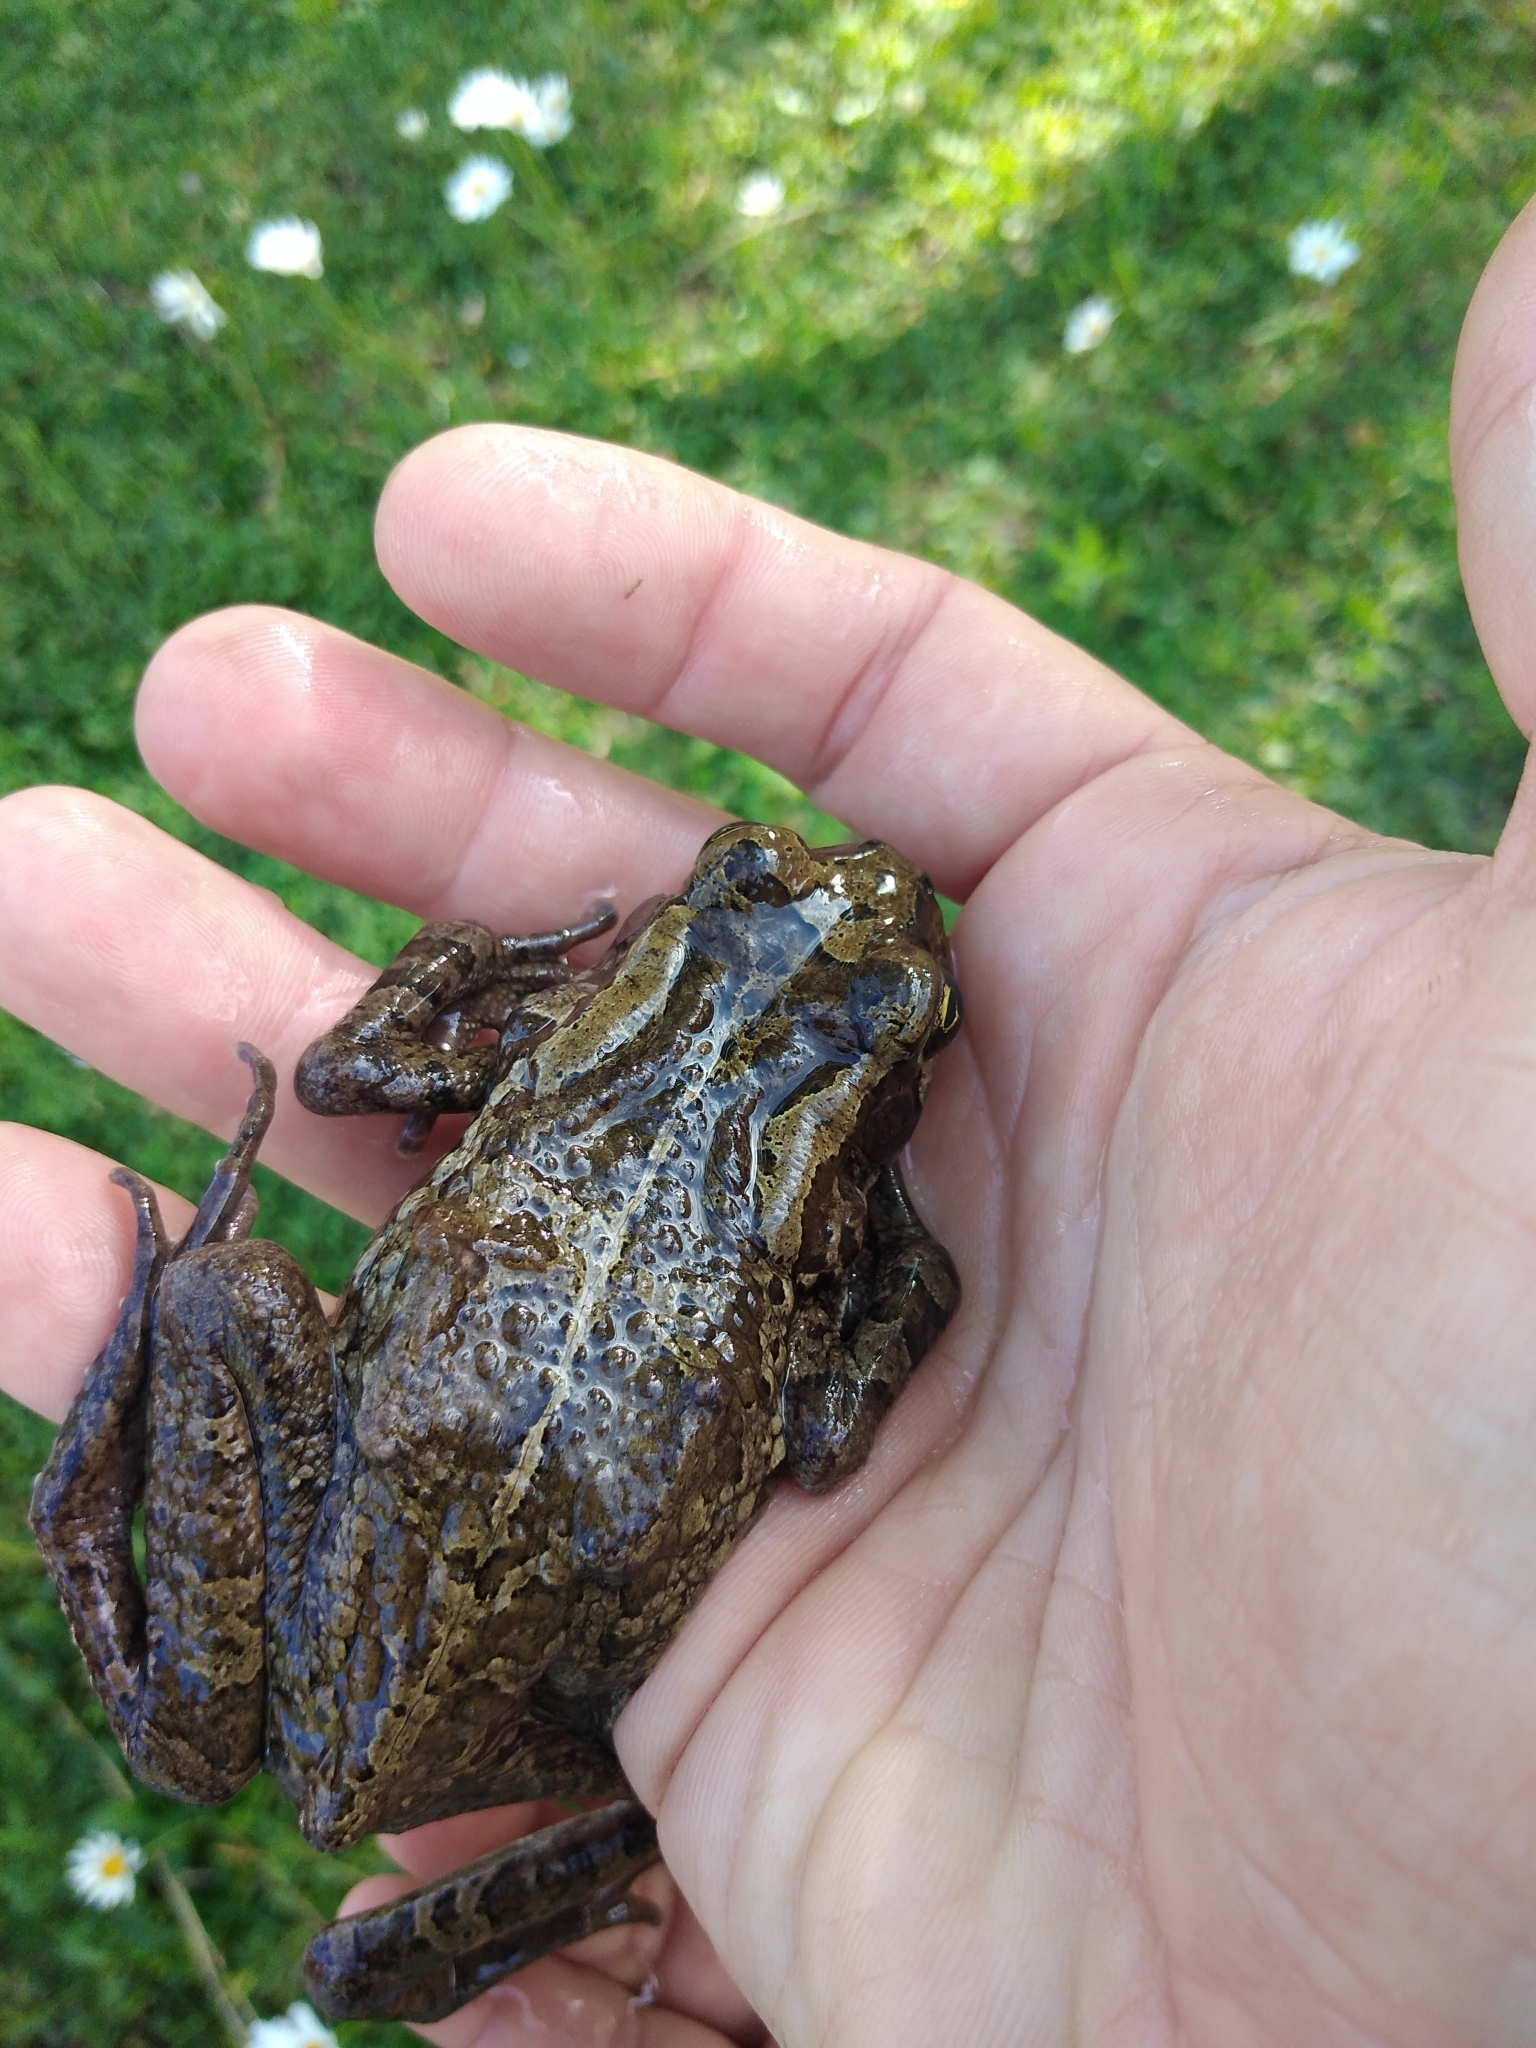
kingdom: Animalia
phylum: Chordata
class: Amphibia
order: Anura
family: Bufonidae
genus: Sclerophrys
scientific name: Sclerophrys capensis
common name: Ranger’s toad
